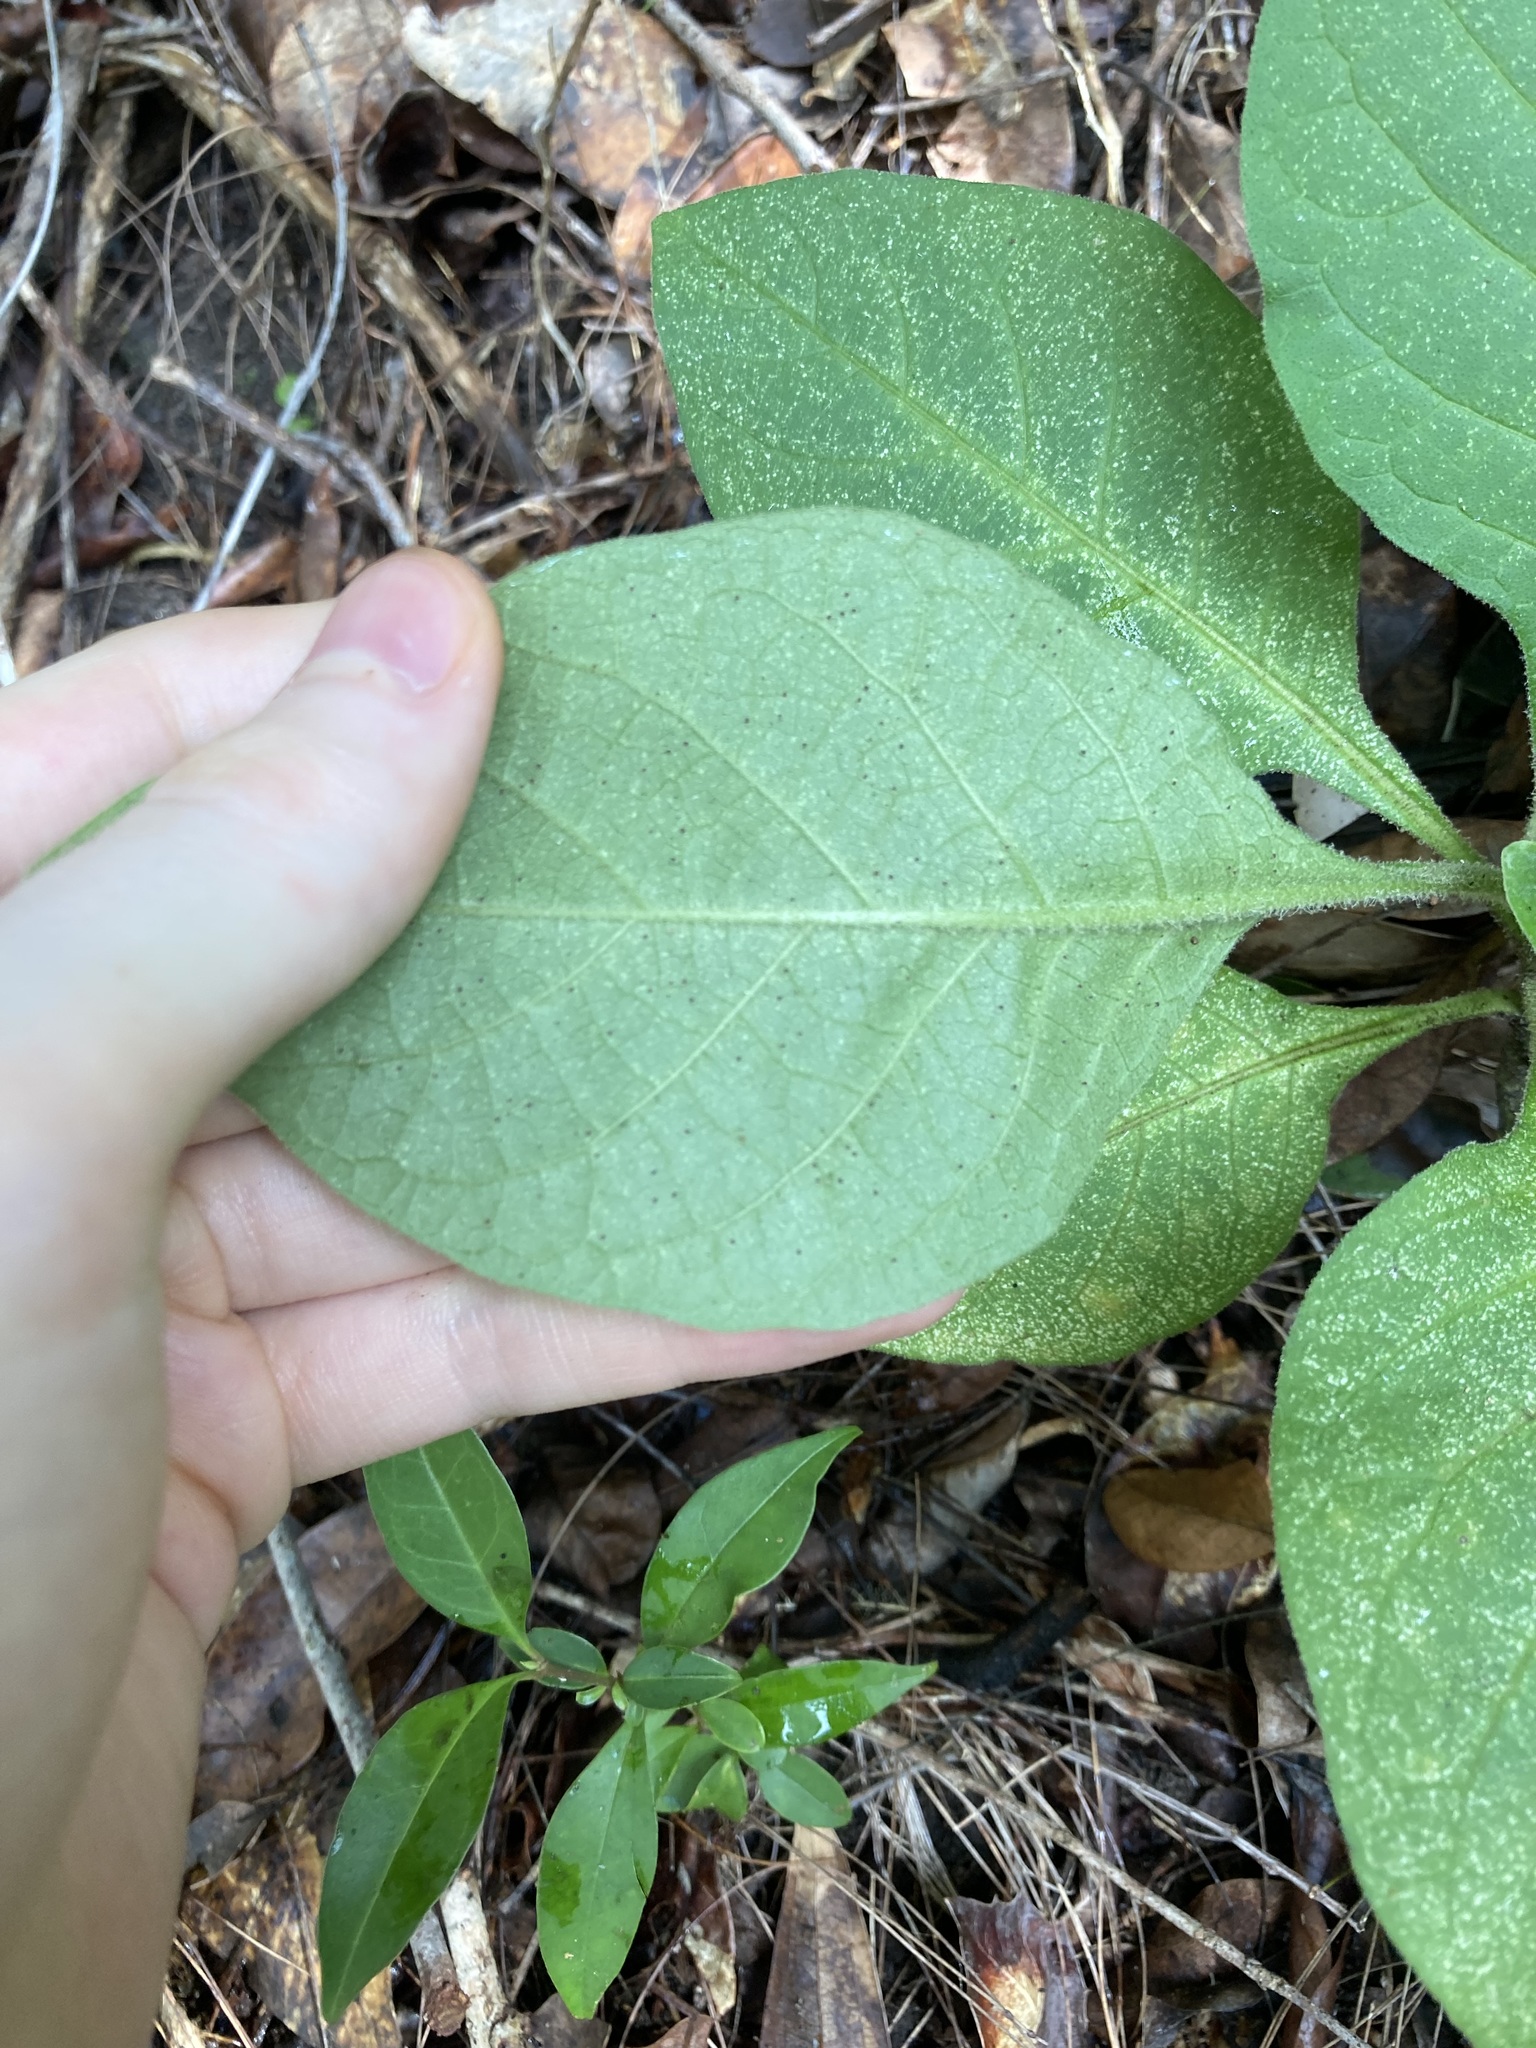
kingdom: Plantae
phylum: Tracheophyta
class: Magnoliopsida
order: Solanales
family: Solanaceae
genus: Solanum
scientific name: Solanum mauritianum
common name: Earleaf nightshade
